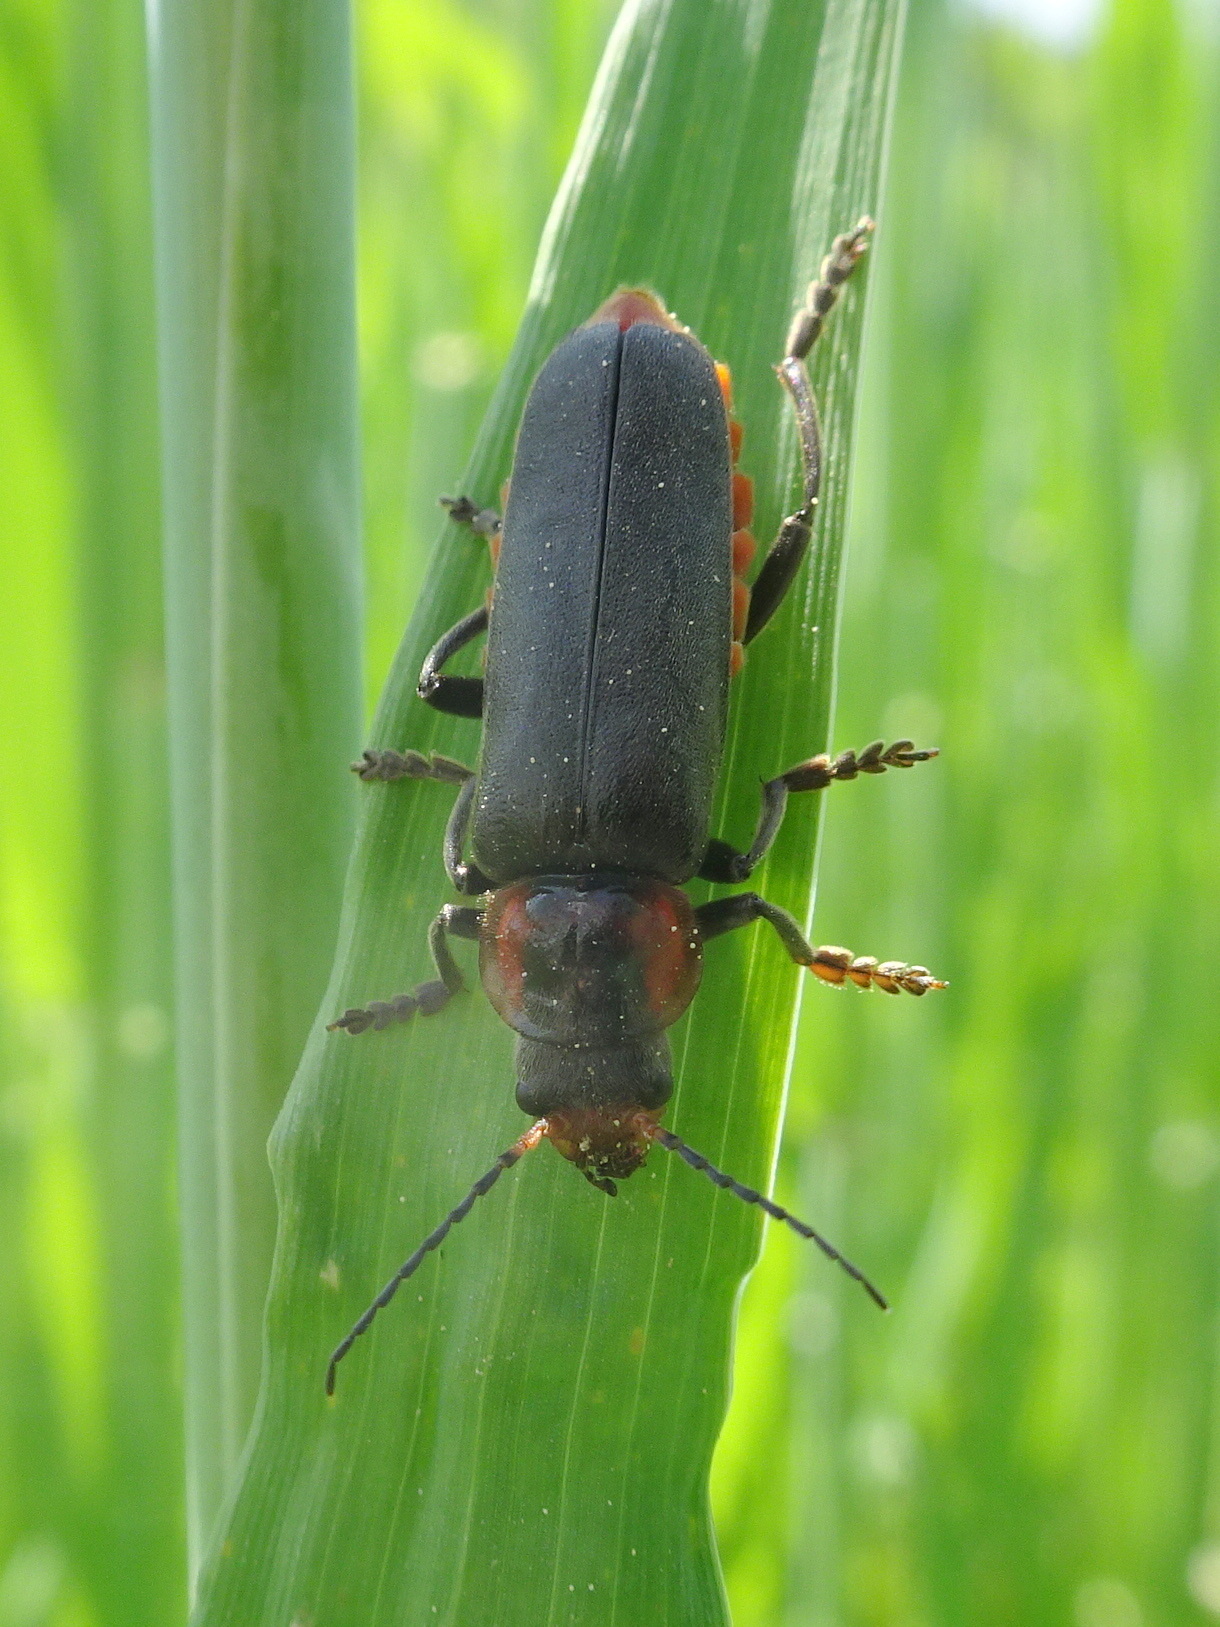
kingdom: Animalia
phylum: Arthropoda
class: Insecta
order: Coleoptera
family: Cantharidae
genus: Cantharis
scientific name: Cantharis fusca
